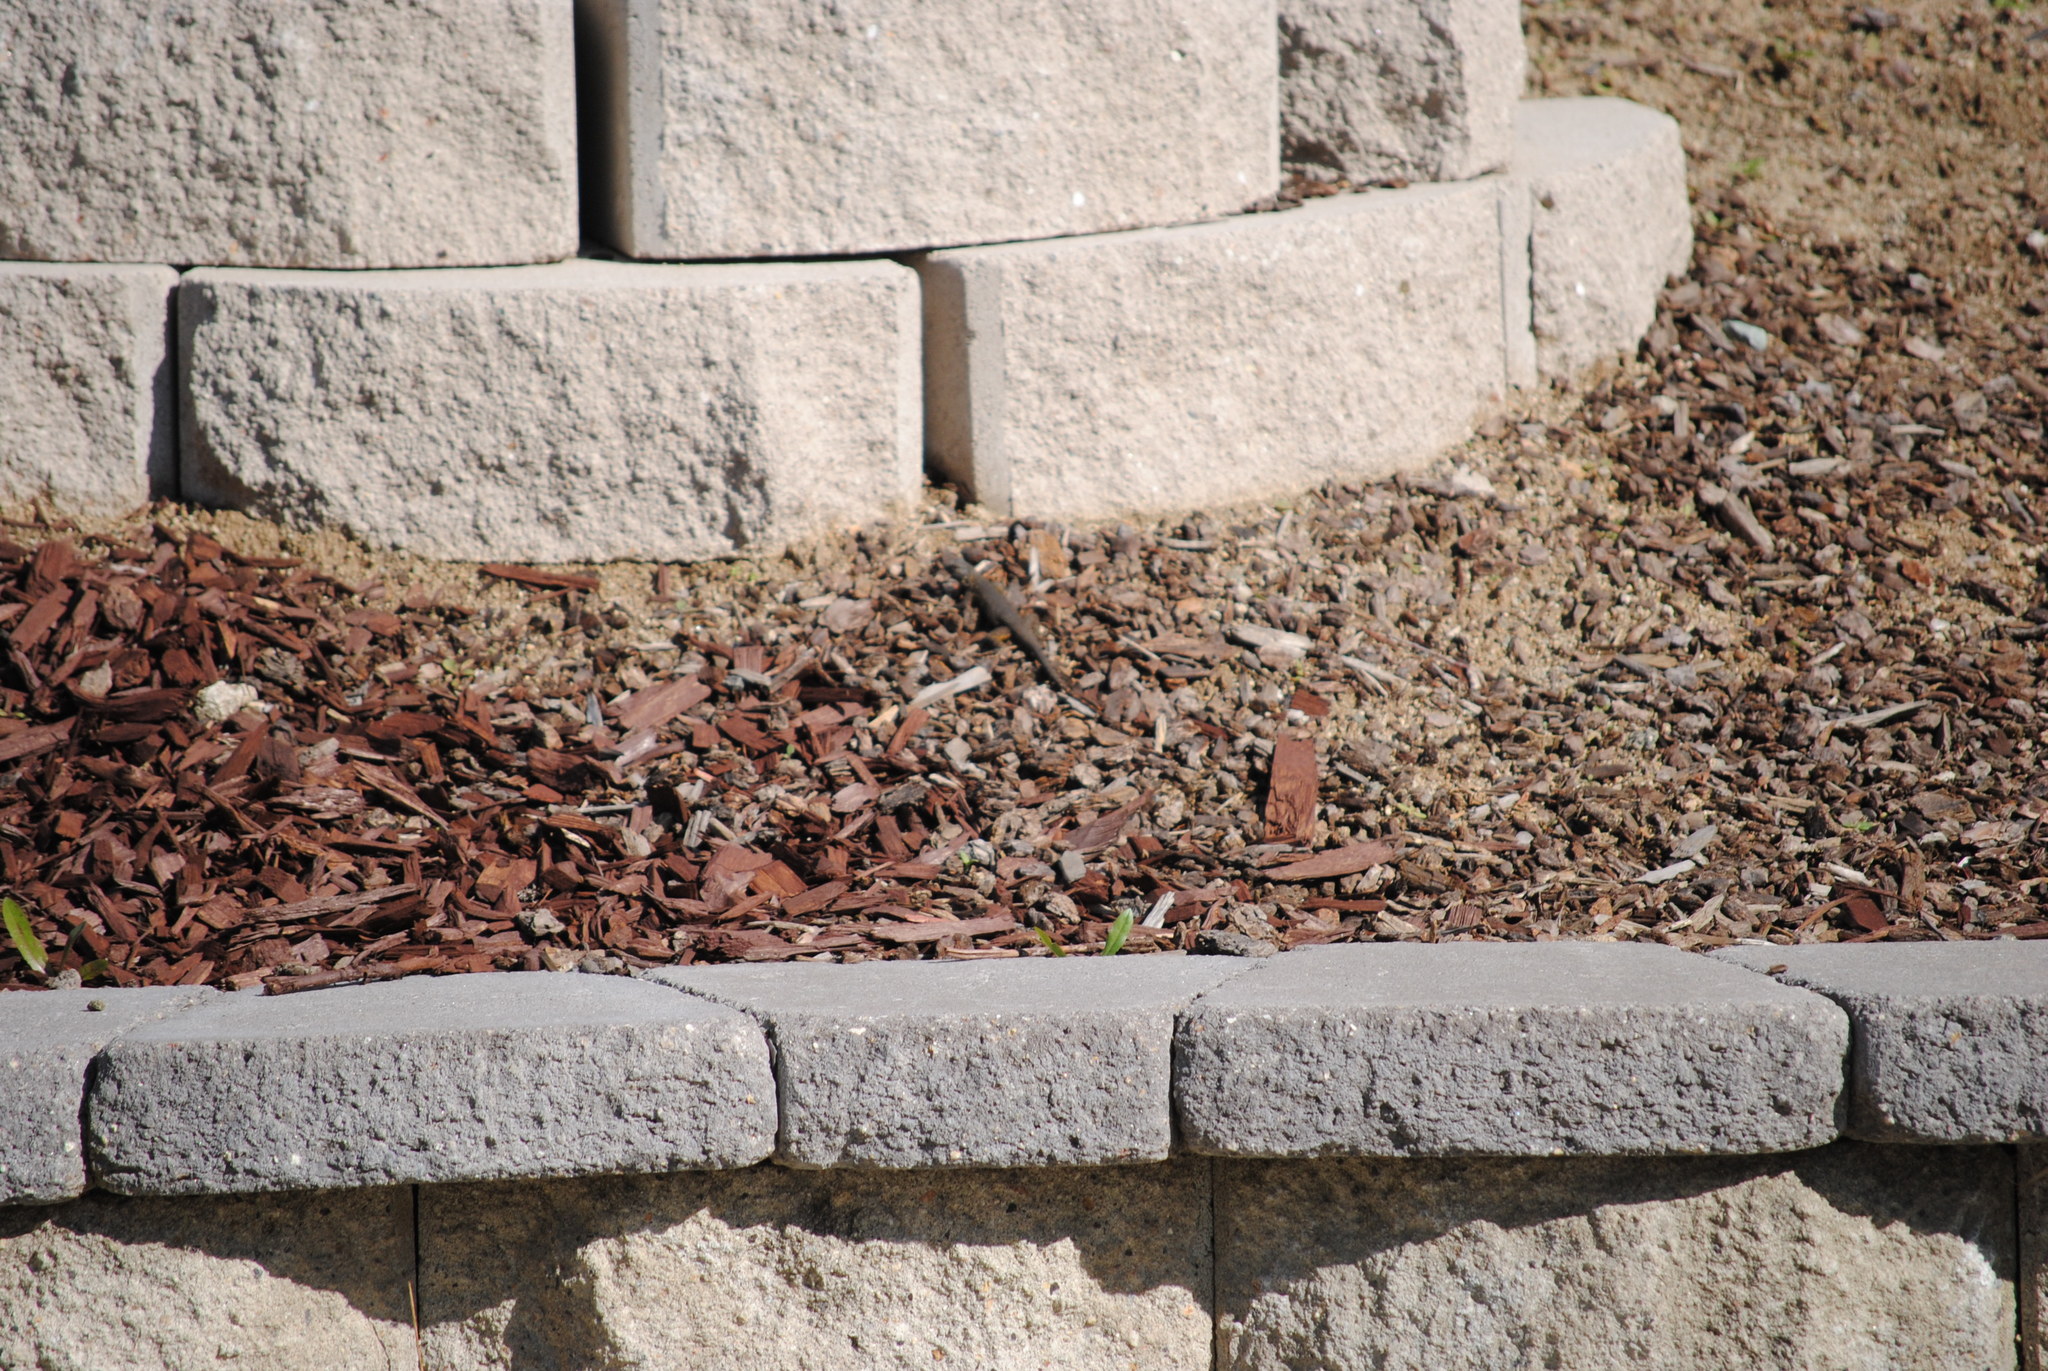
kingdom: Animalia
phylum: Chordata
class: Squamata
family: Phrynosomatidae
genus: Sceloporus
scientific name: Sceloporus occidentalis
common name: Western fence lizard
